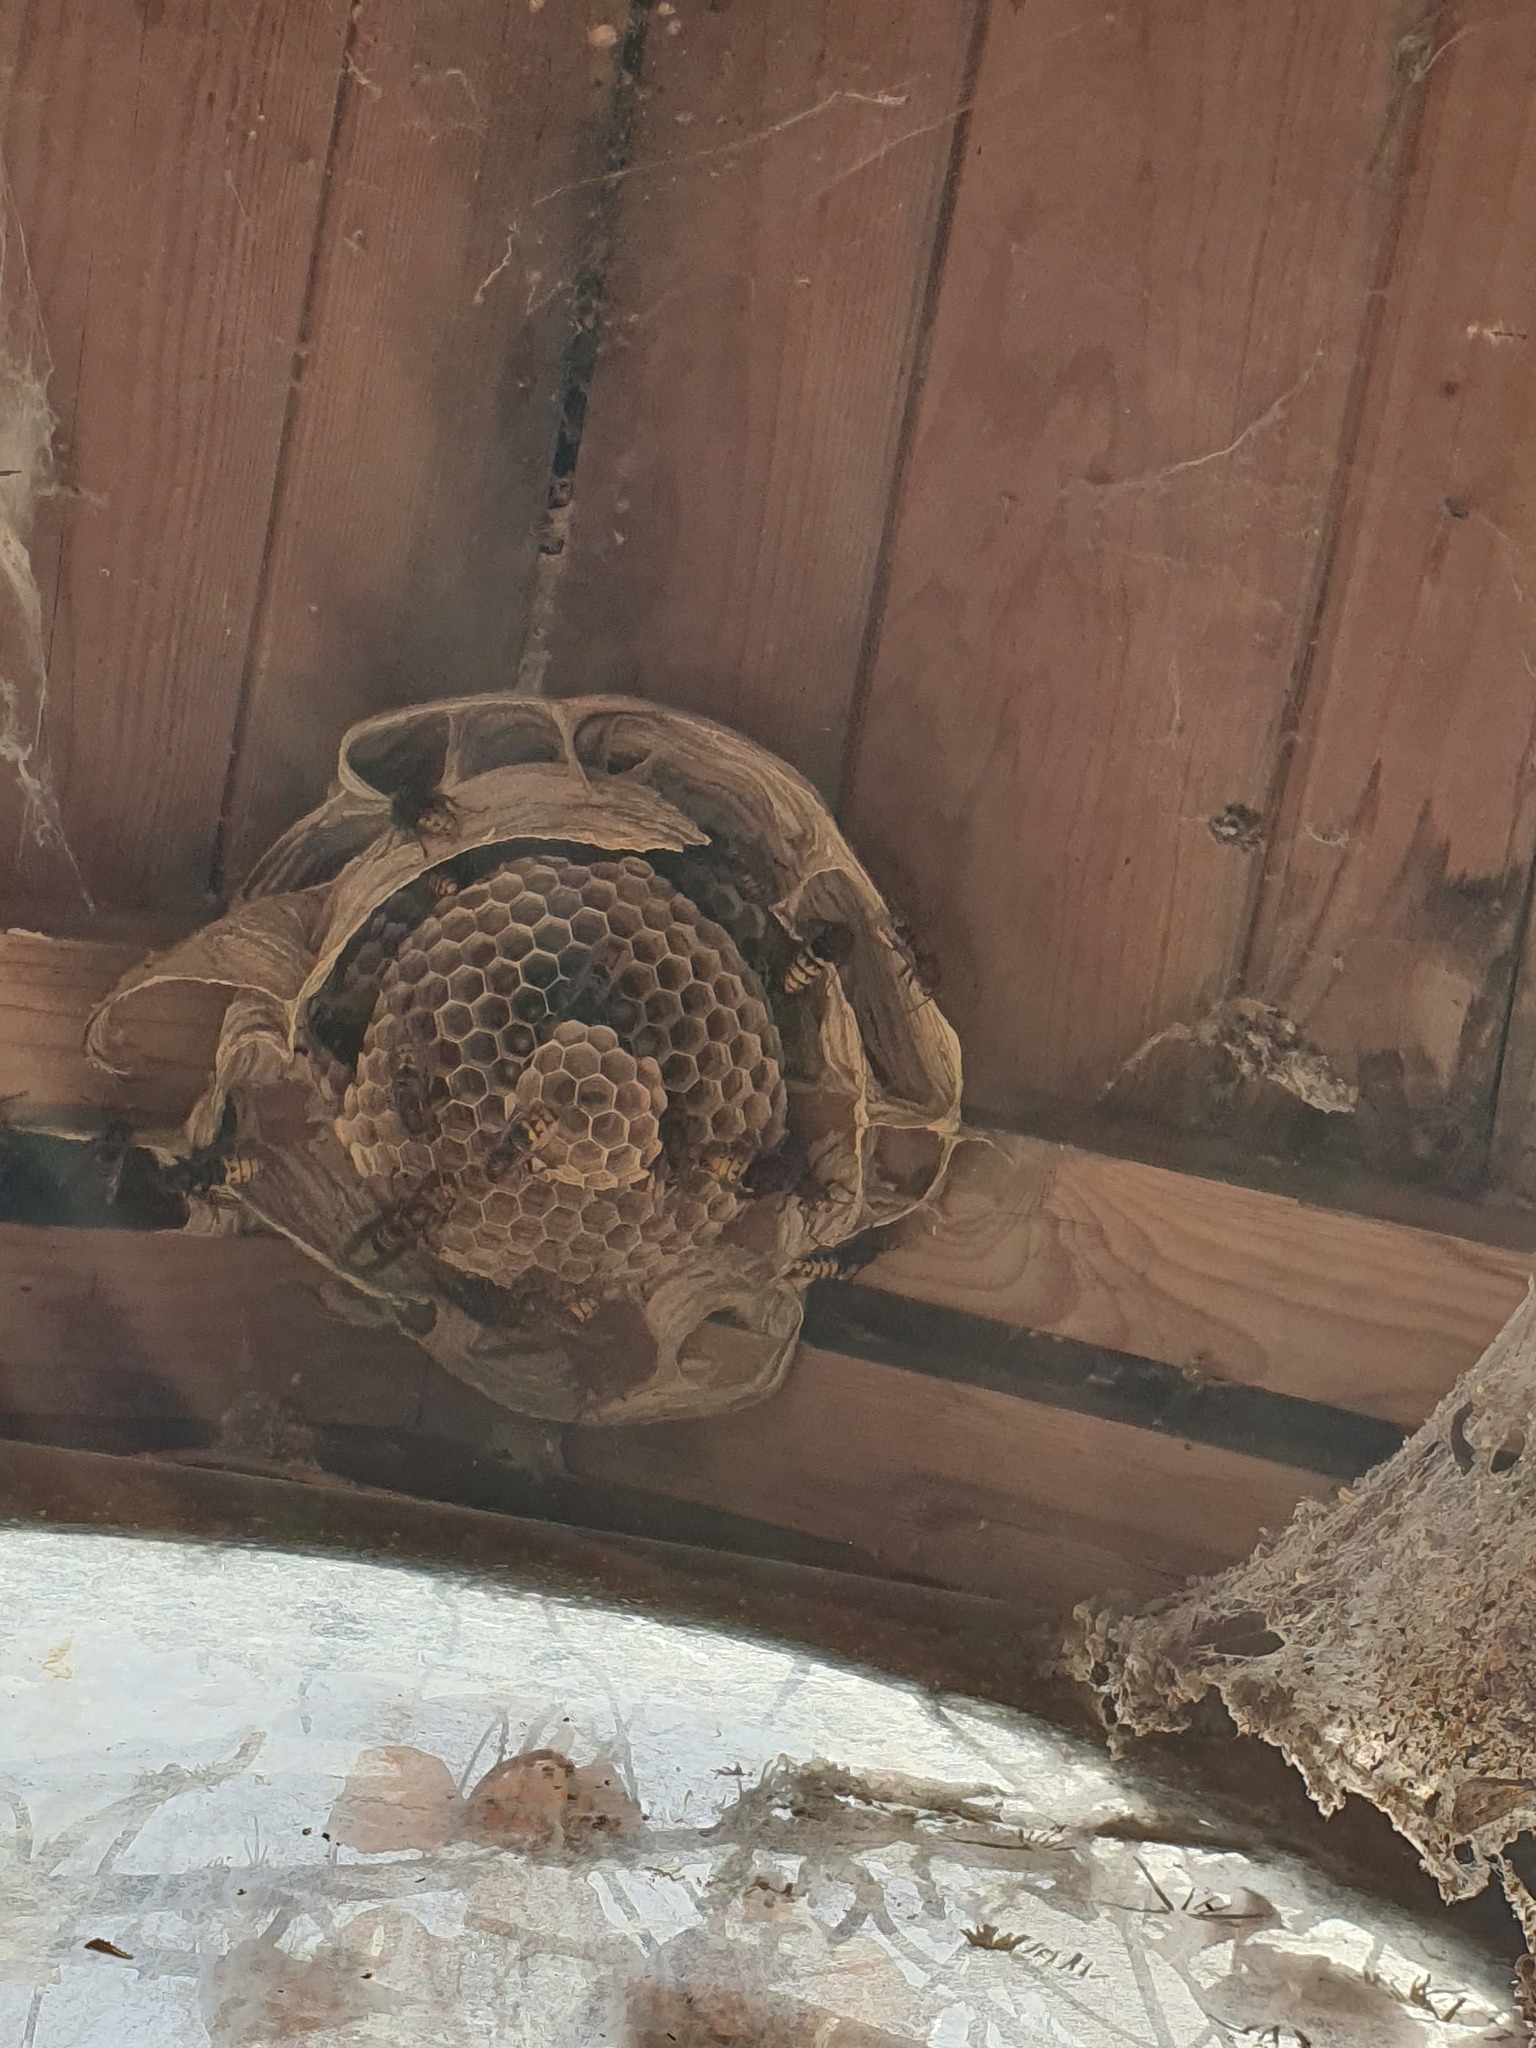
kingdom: Animalia
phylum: Arthropoda
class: Insecta
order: Hymenoptera
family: Vespidae
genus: Vespa
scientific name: Vespa crabro
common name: Hornet
